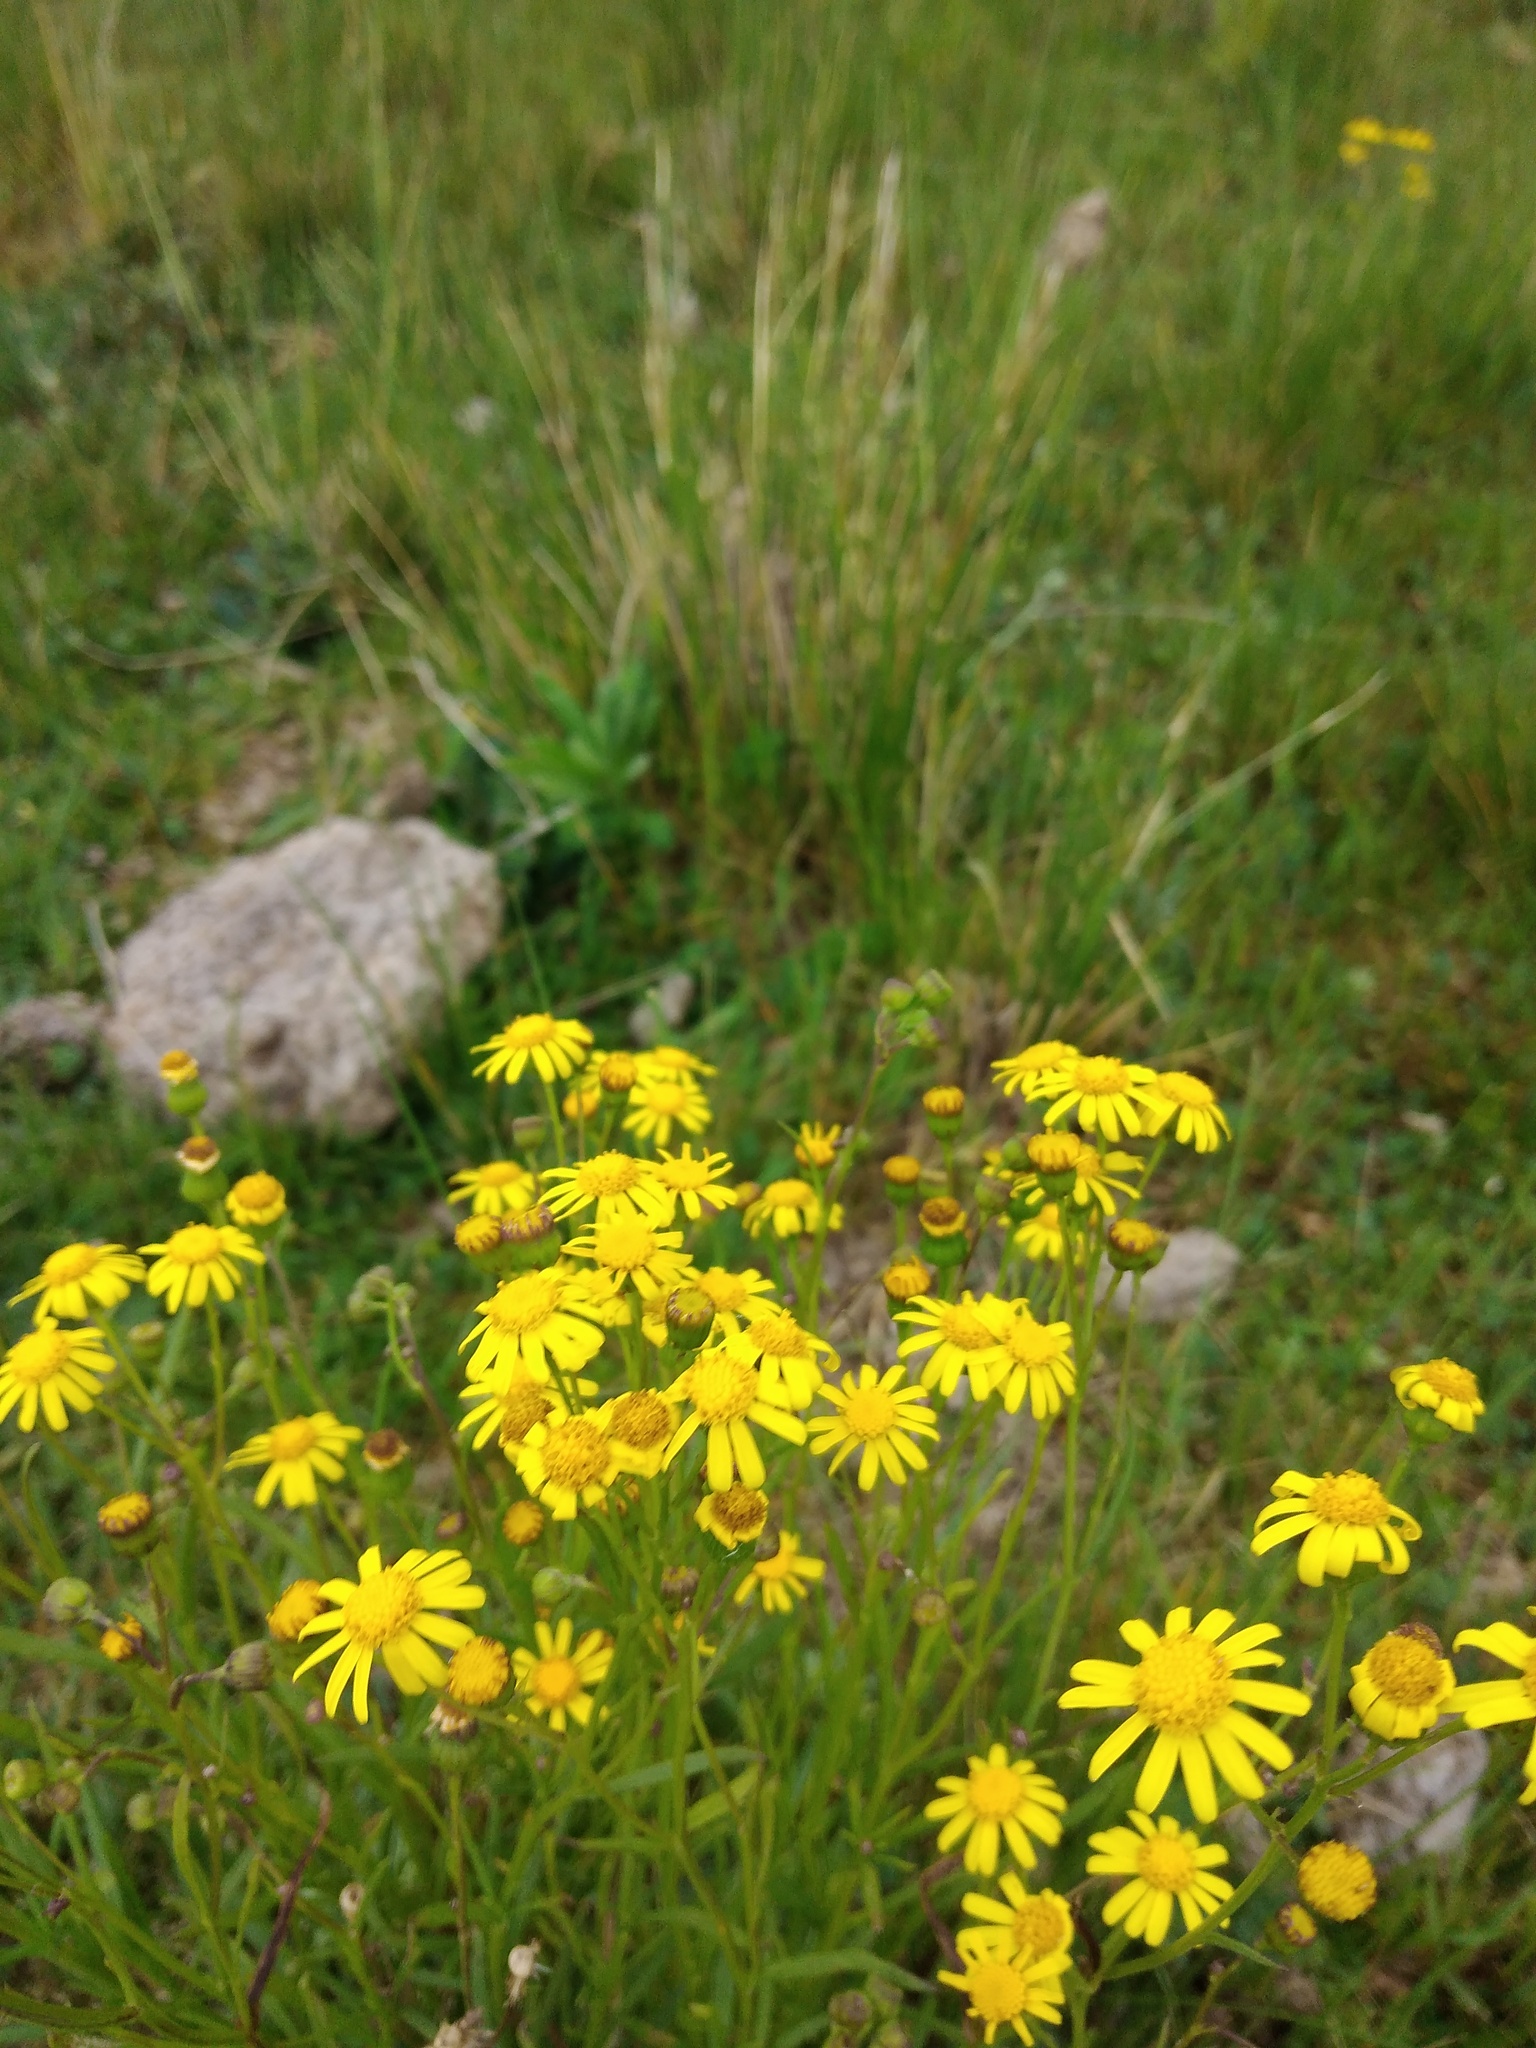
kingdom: Plantae
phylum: Tracheophyta
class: Magnoliopsida
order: Asterales
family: Asteraceae
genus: Senecio
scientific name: Senecio madagascariensis
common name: Madagascar ragwort
